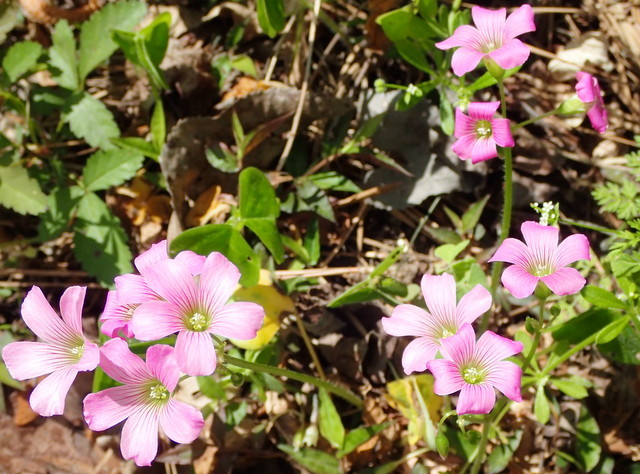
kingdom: Plantae
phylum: Tracheophyta
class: Magnoliopsida
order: Oxalidales
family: Oxalidaceae
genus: Oxalis
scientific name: Oxalis debilis
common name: Large-flowered pink-sorrel
